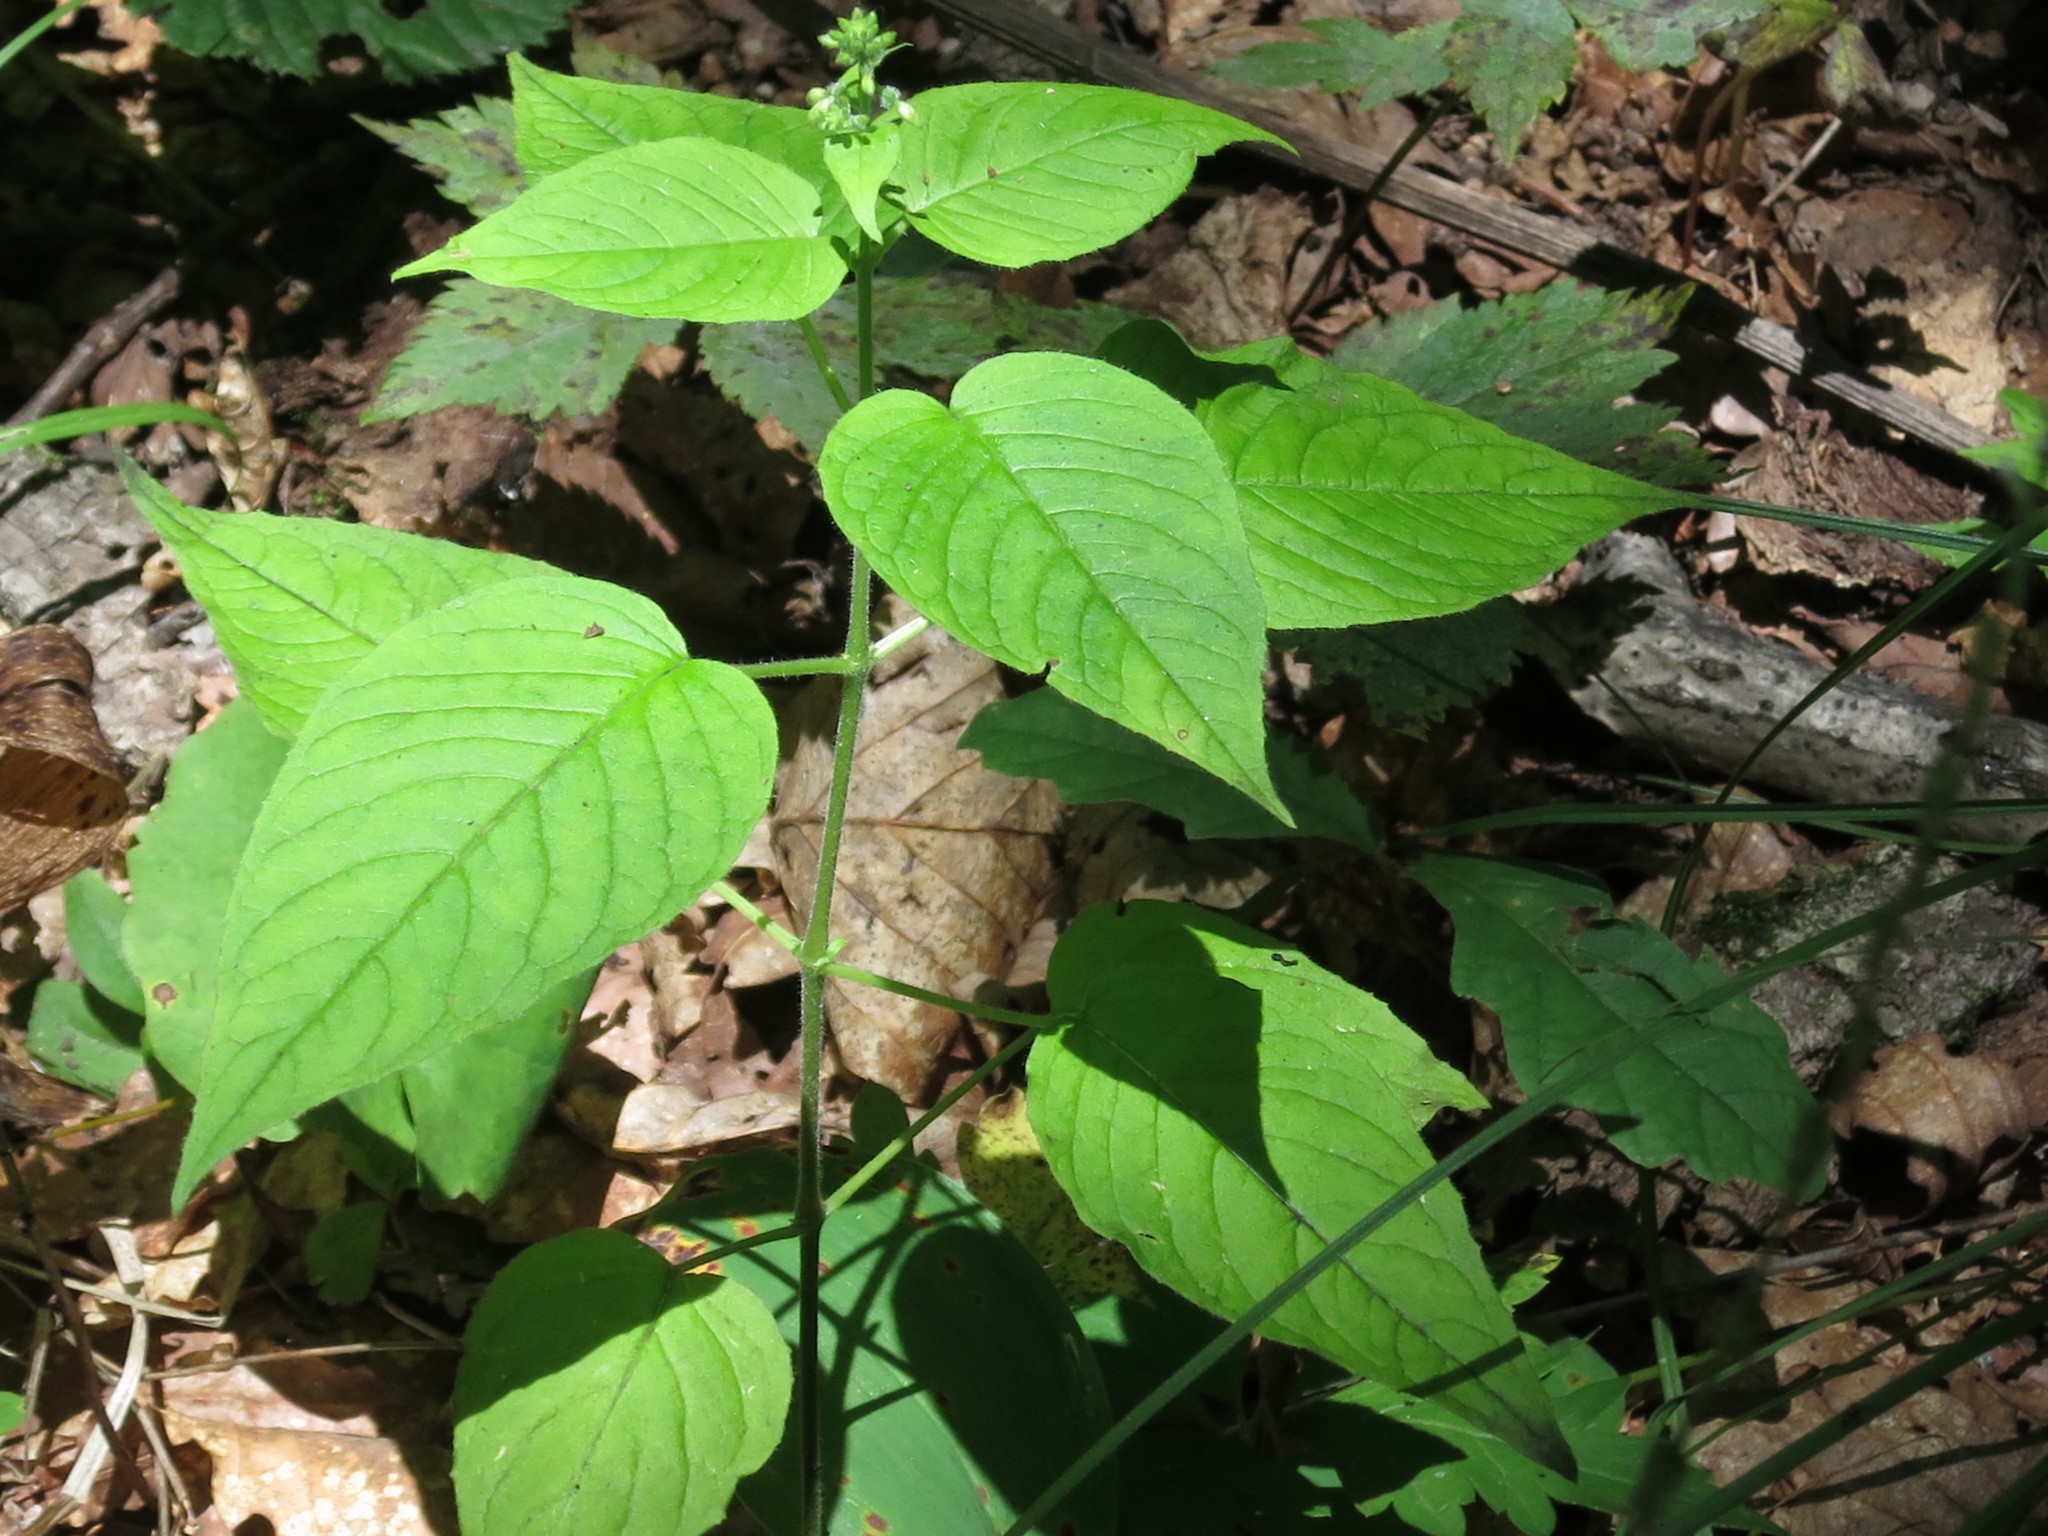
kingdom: Plantae
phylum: Tracheophyta
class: Magnoliopsida
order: Myrtales
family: Onagraceae
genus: Circaea
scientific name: Circaea cordata
